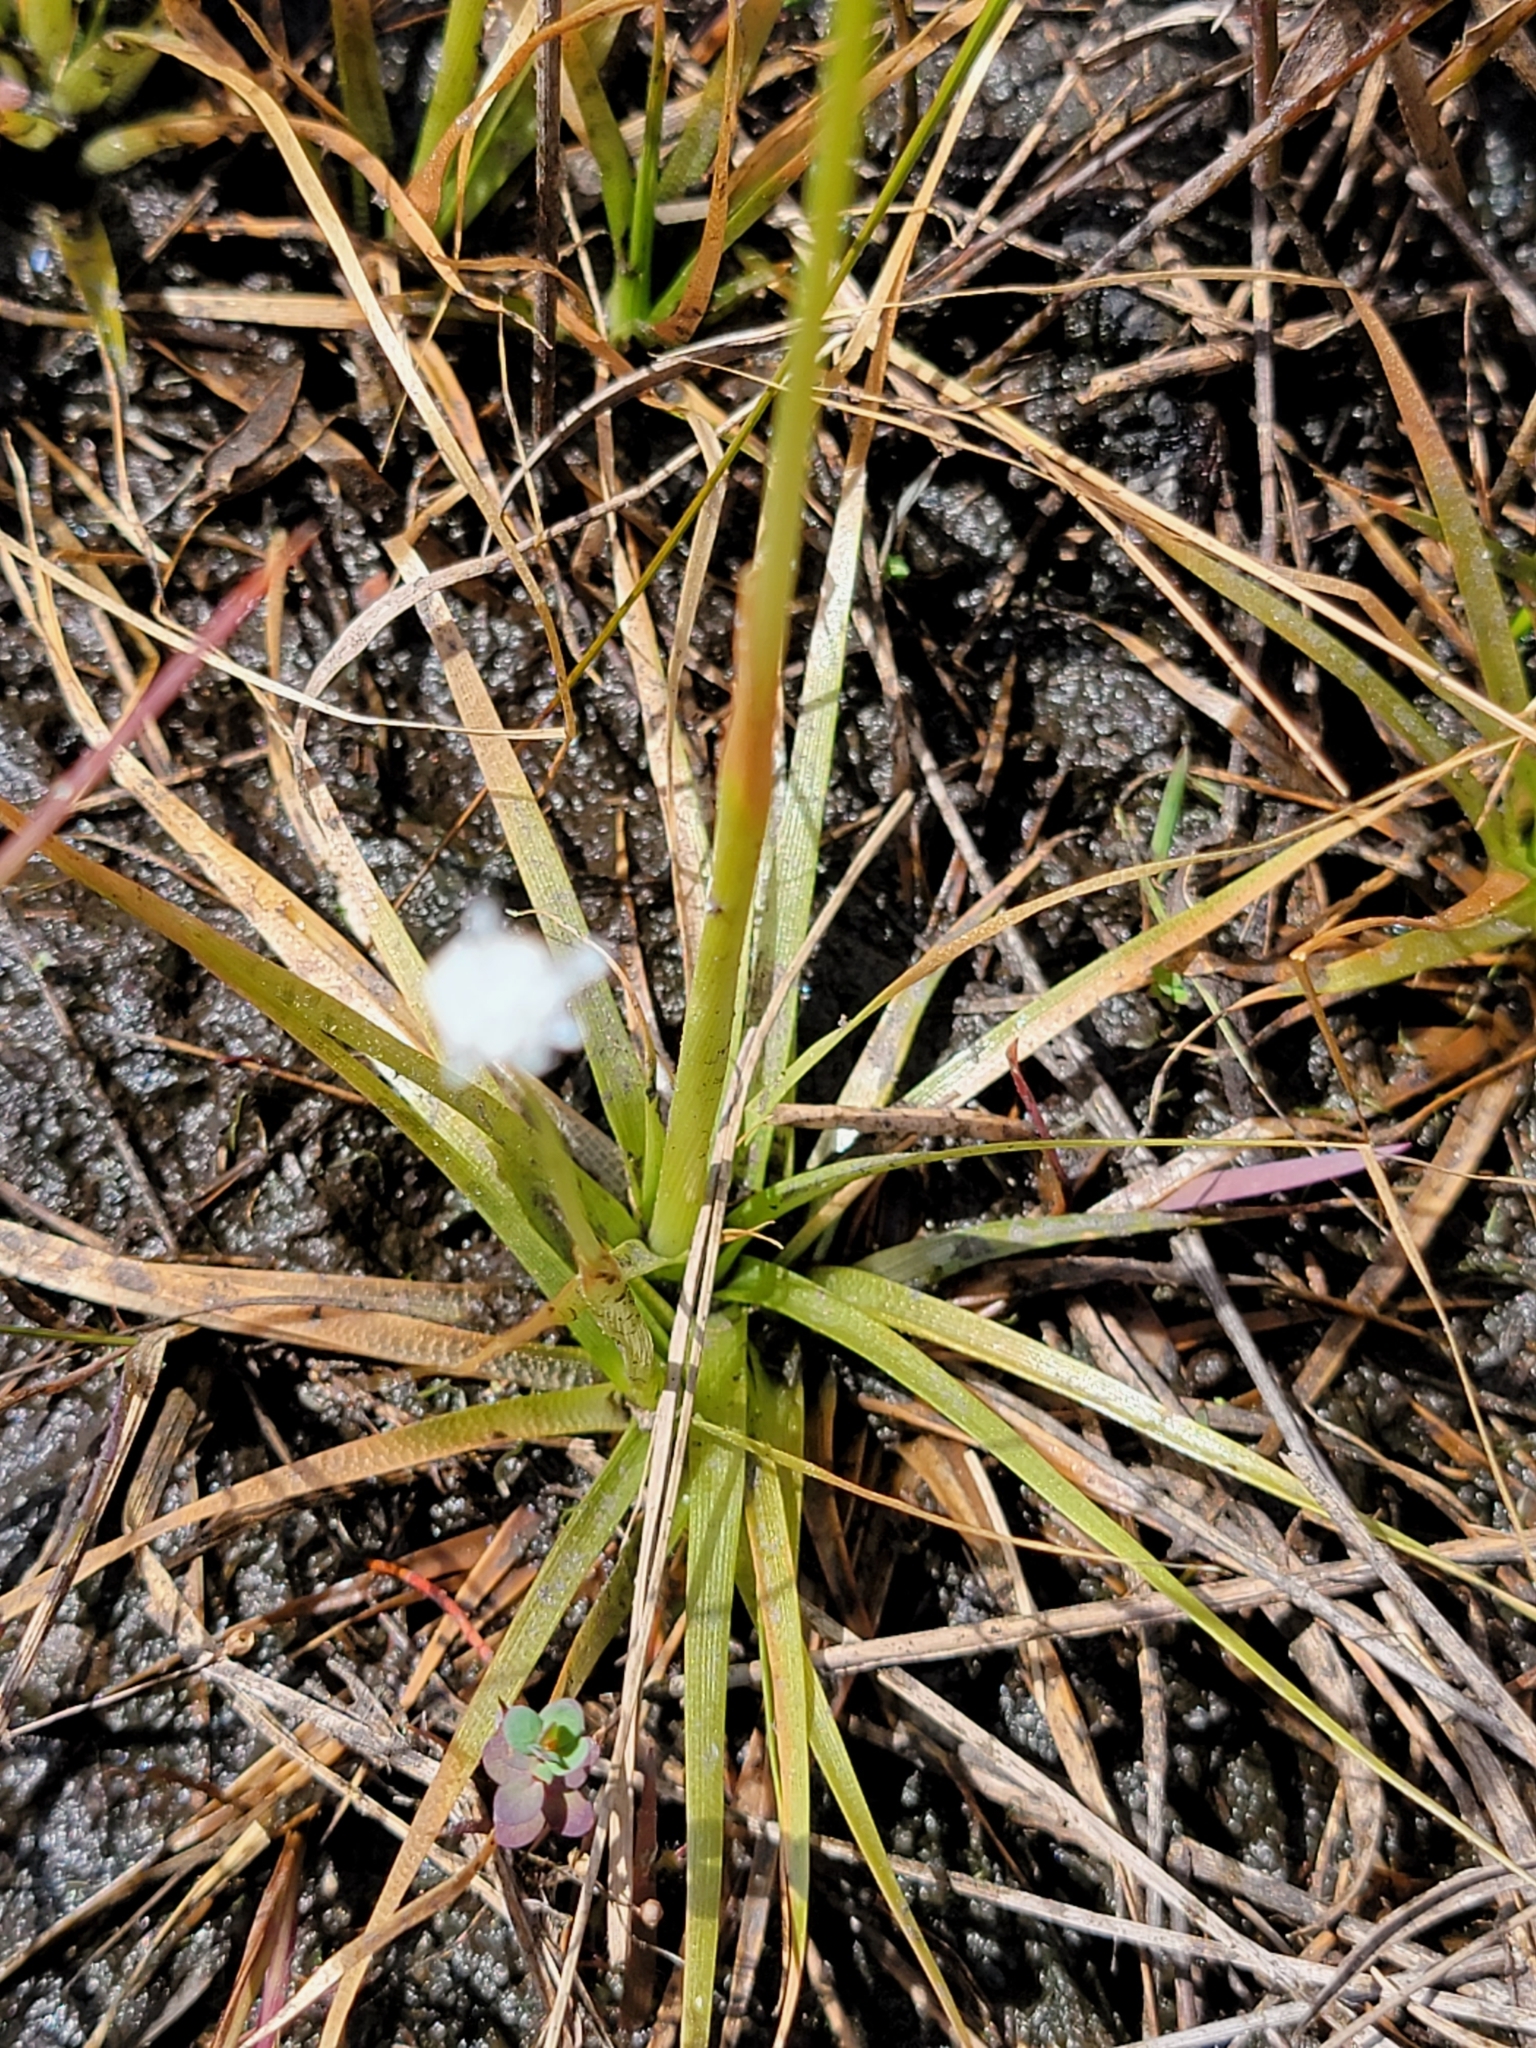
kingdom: Plantae
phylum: Tracheophyta
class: Liliopsida
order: Poales
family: Eriocaulaceae
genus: Eriocaulon
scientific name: Eriocaulon compressum
